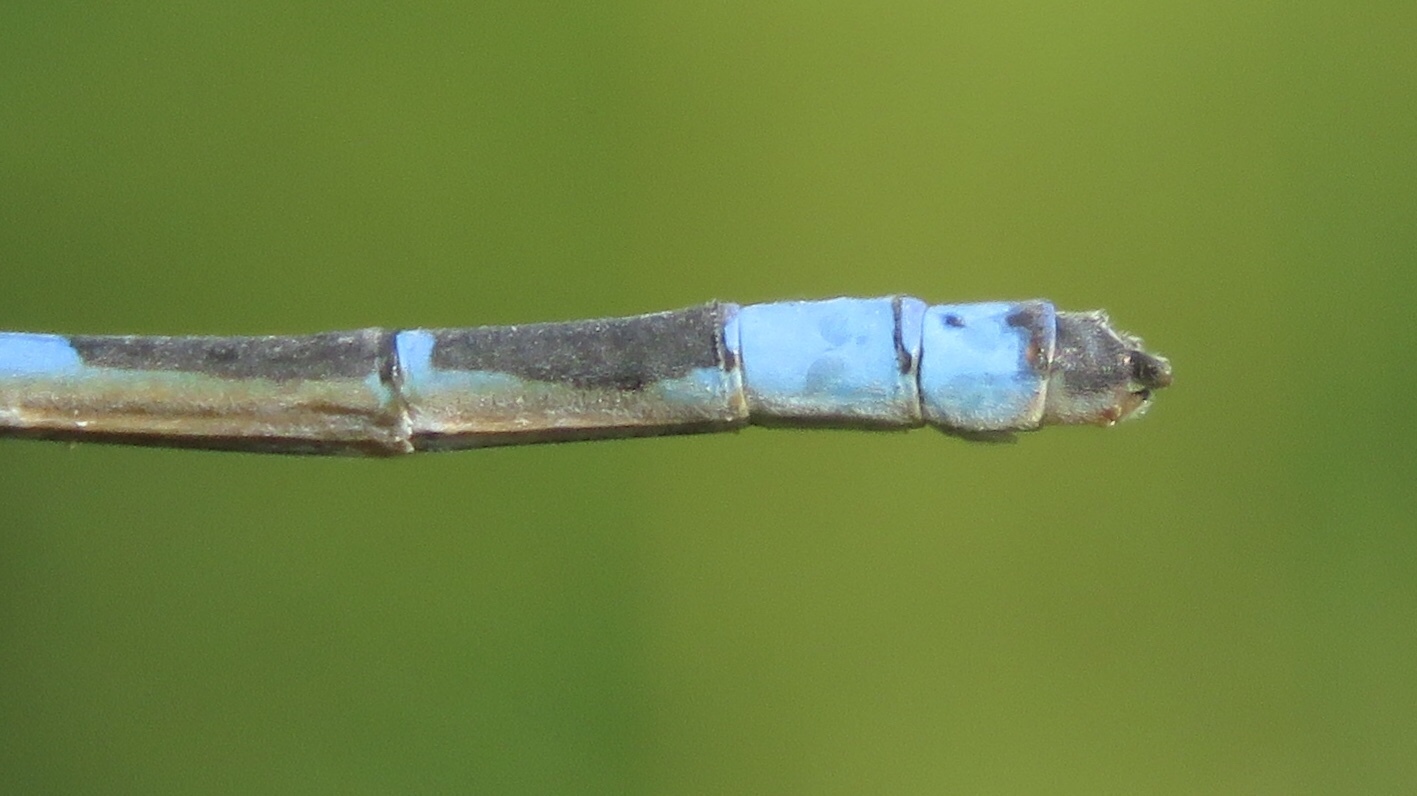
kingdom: Animalia
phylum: Arthropoda
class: Insecta
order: Odonata
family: Coenagrionidae
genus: Enallagma
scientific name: Enallagma carunculatum
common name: Tule bluet
